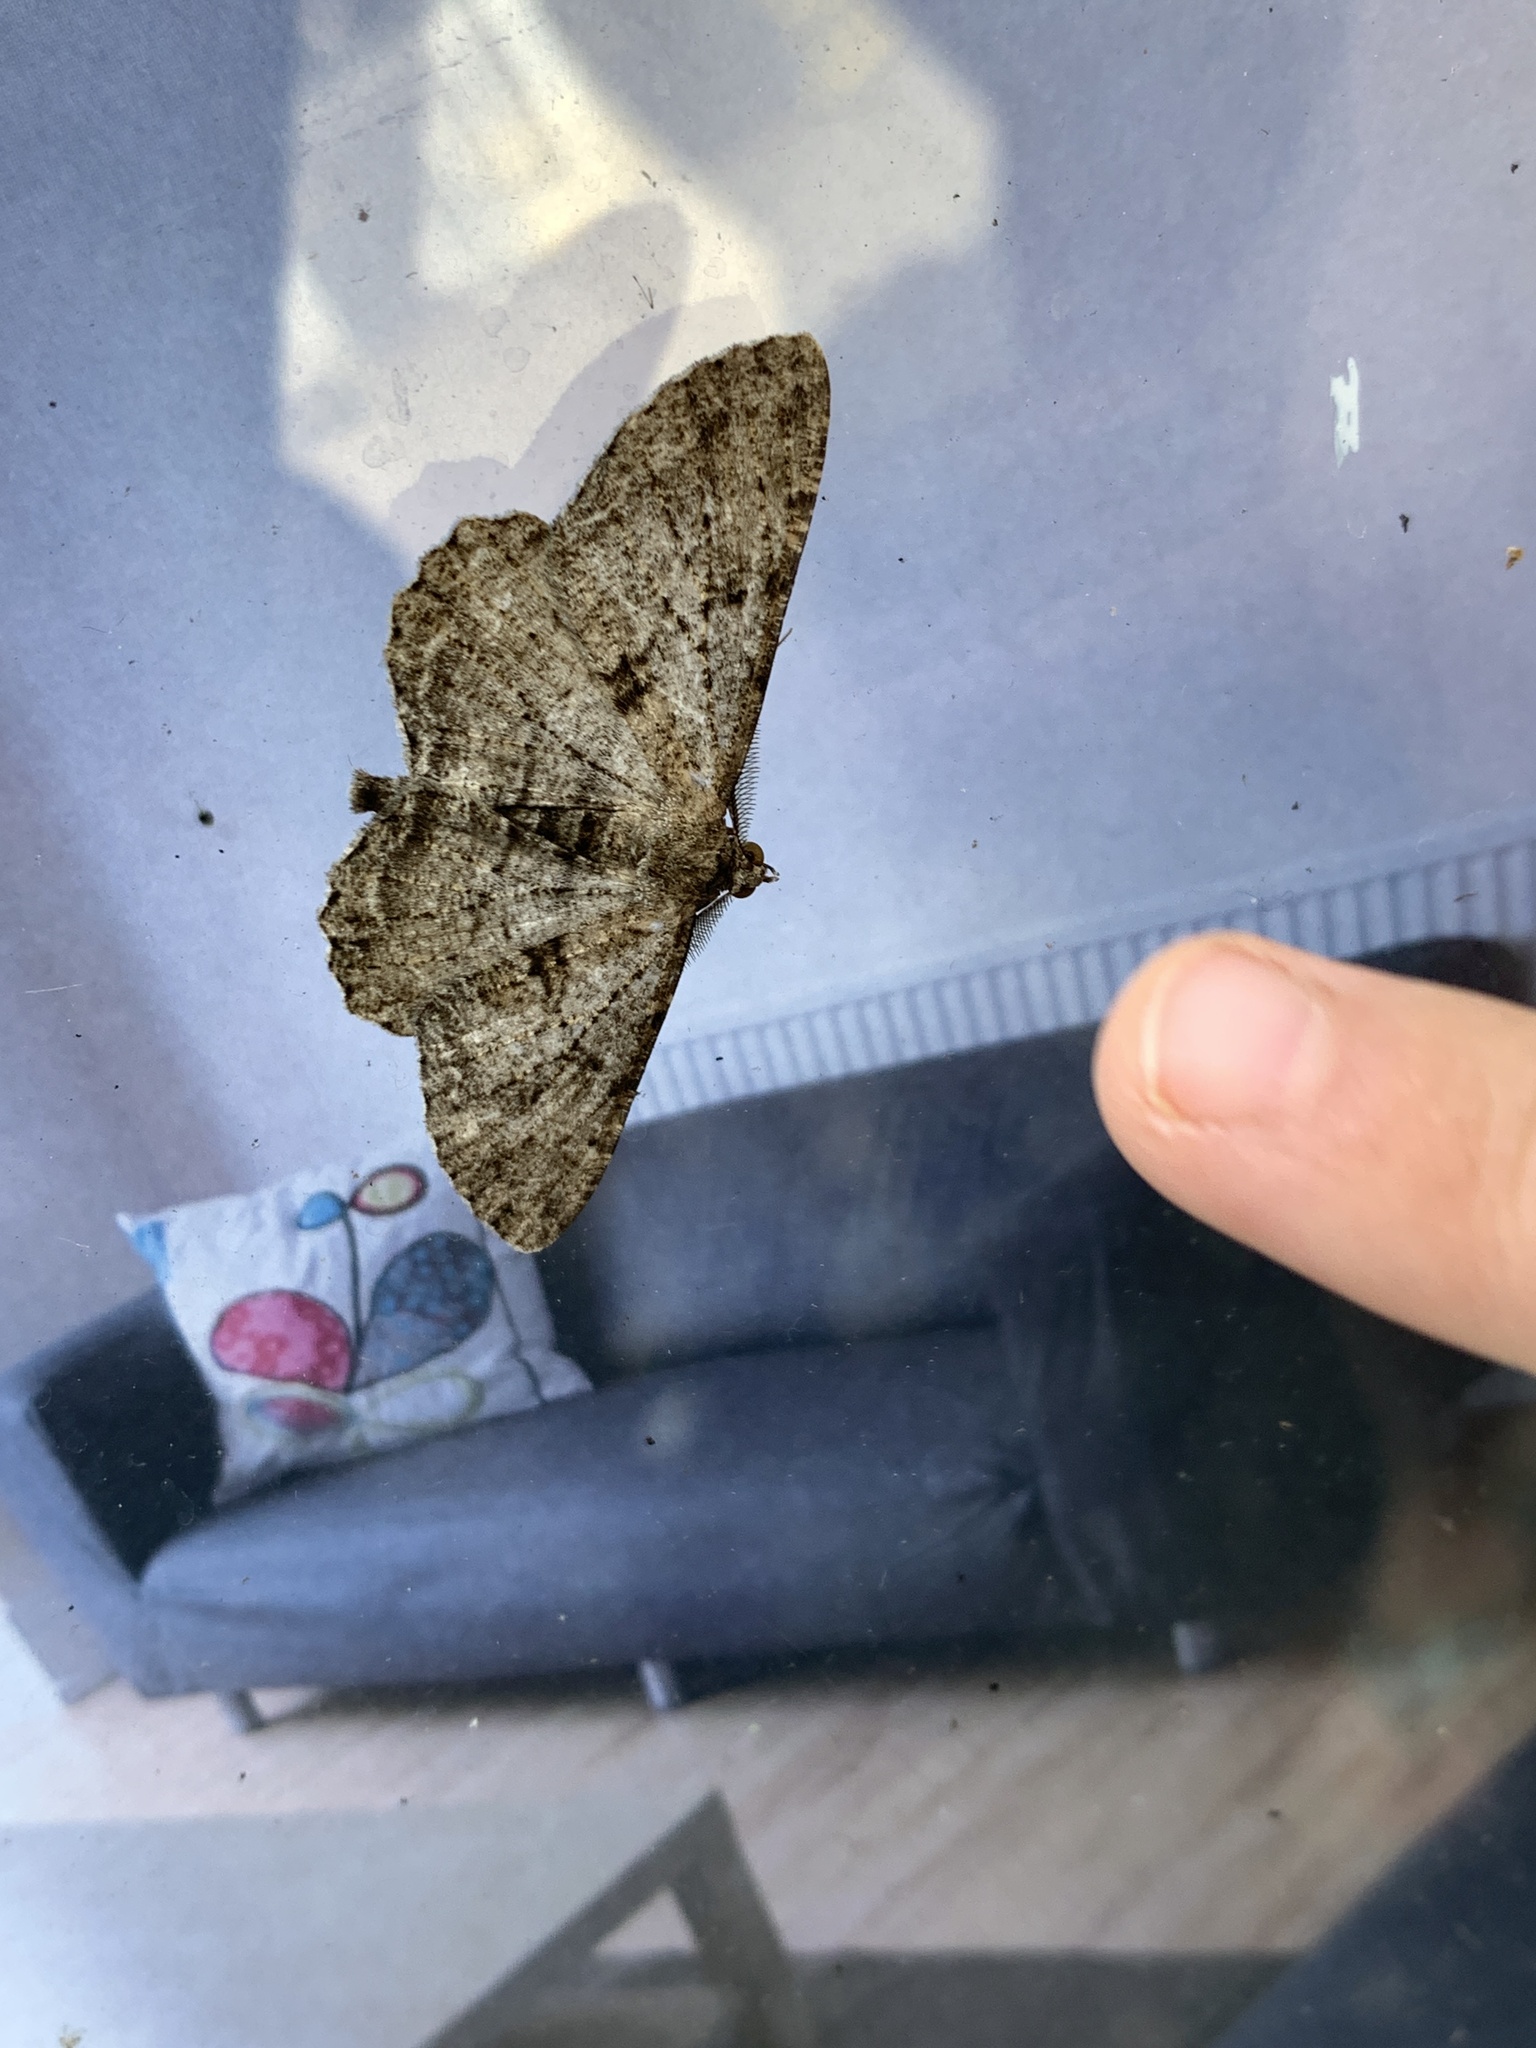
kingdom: Animalia
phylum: Arthropoda
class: Insecta
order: Lepidoptera
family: Geometridae
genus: Peribatodes
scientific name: Peribatodes rhomboidaria
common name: Willow beauty
